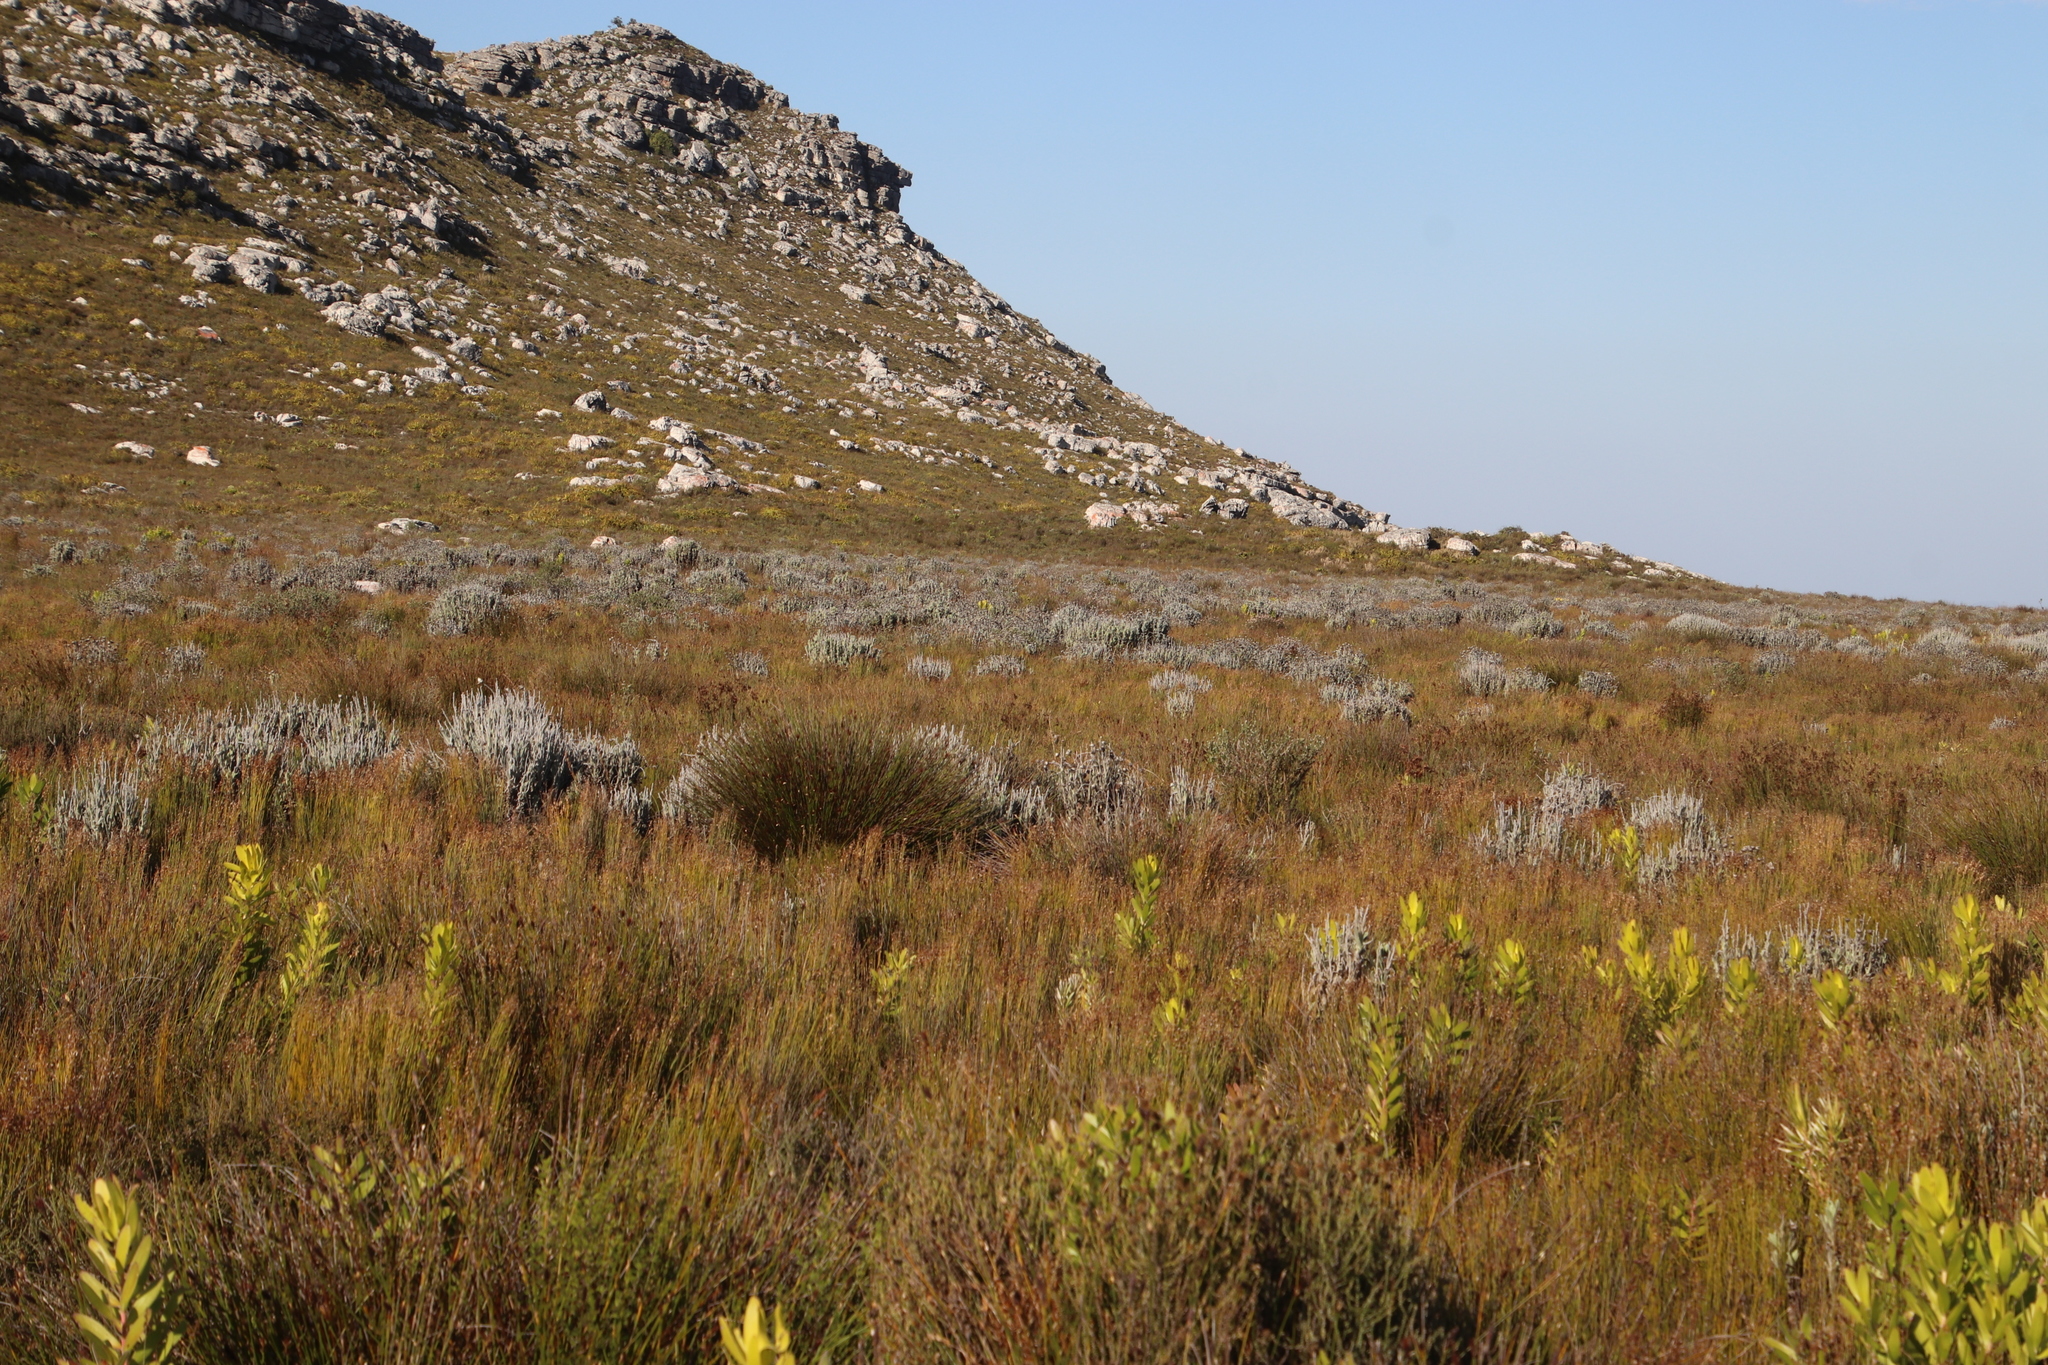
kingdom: Plantae
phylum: Tracheophyta
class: Magnoliopsida
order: Asterales
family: Asteraceae
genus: Syncarpha
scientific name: Syncarpha vestita
